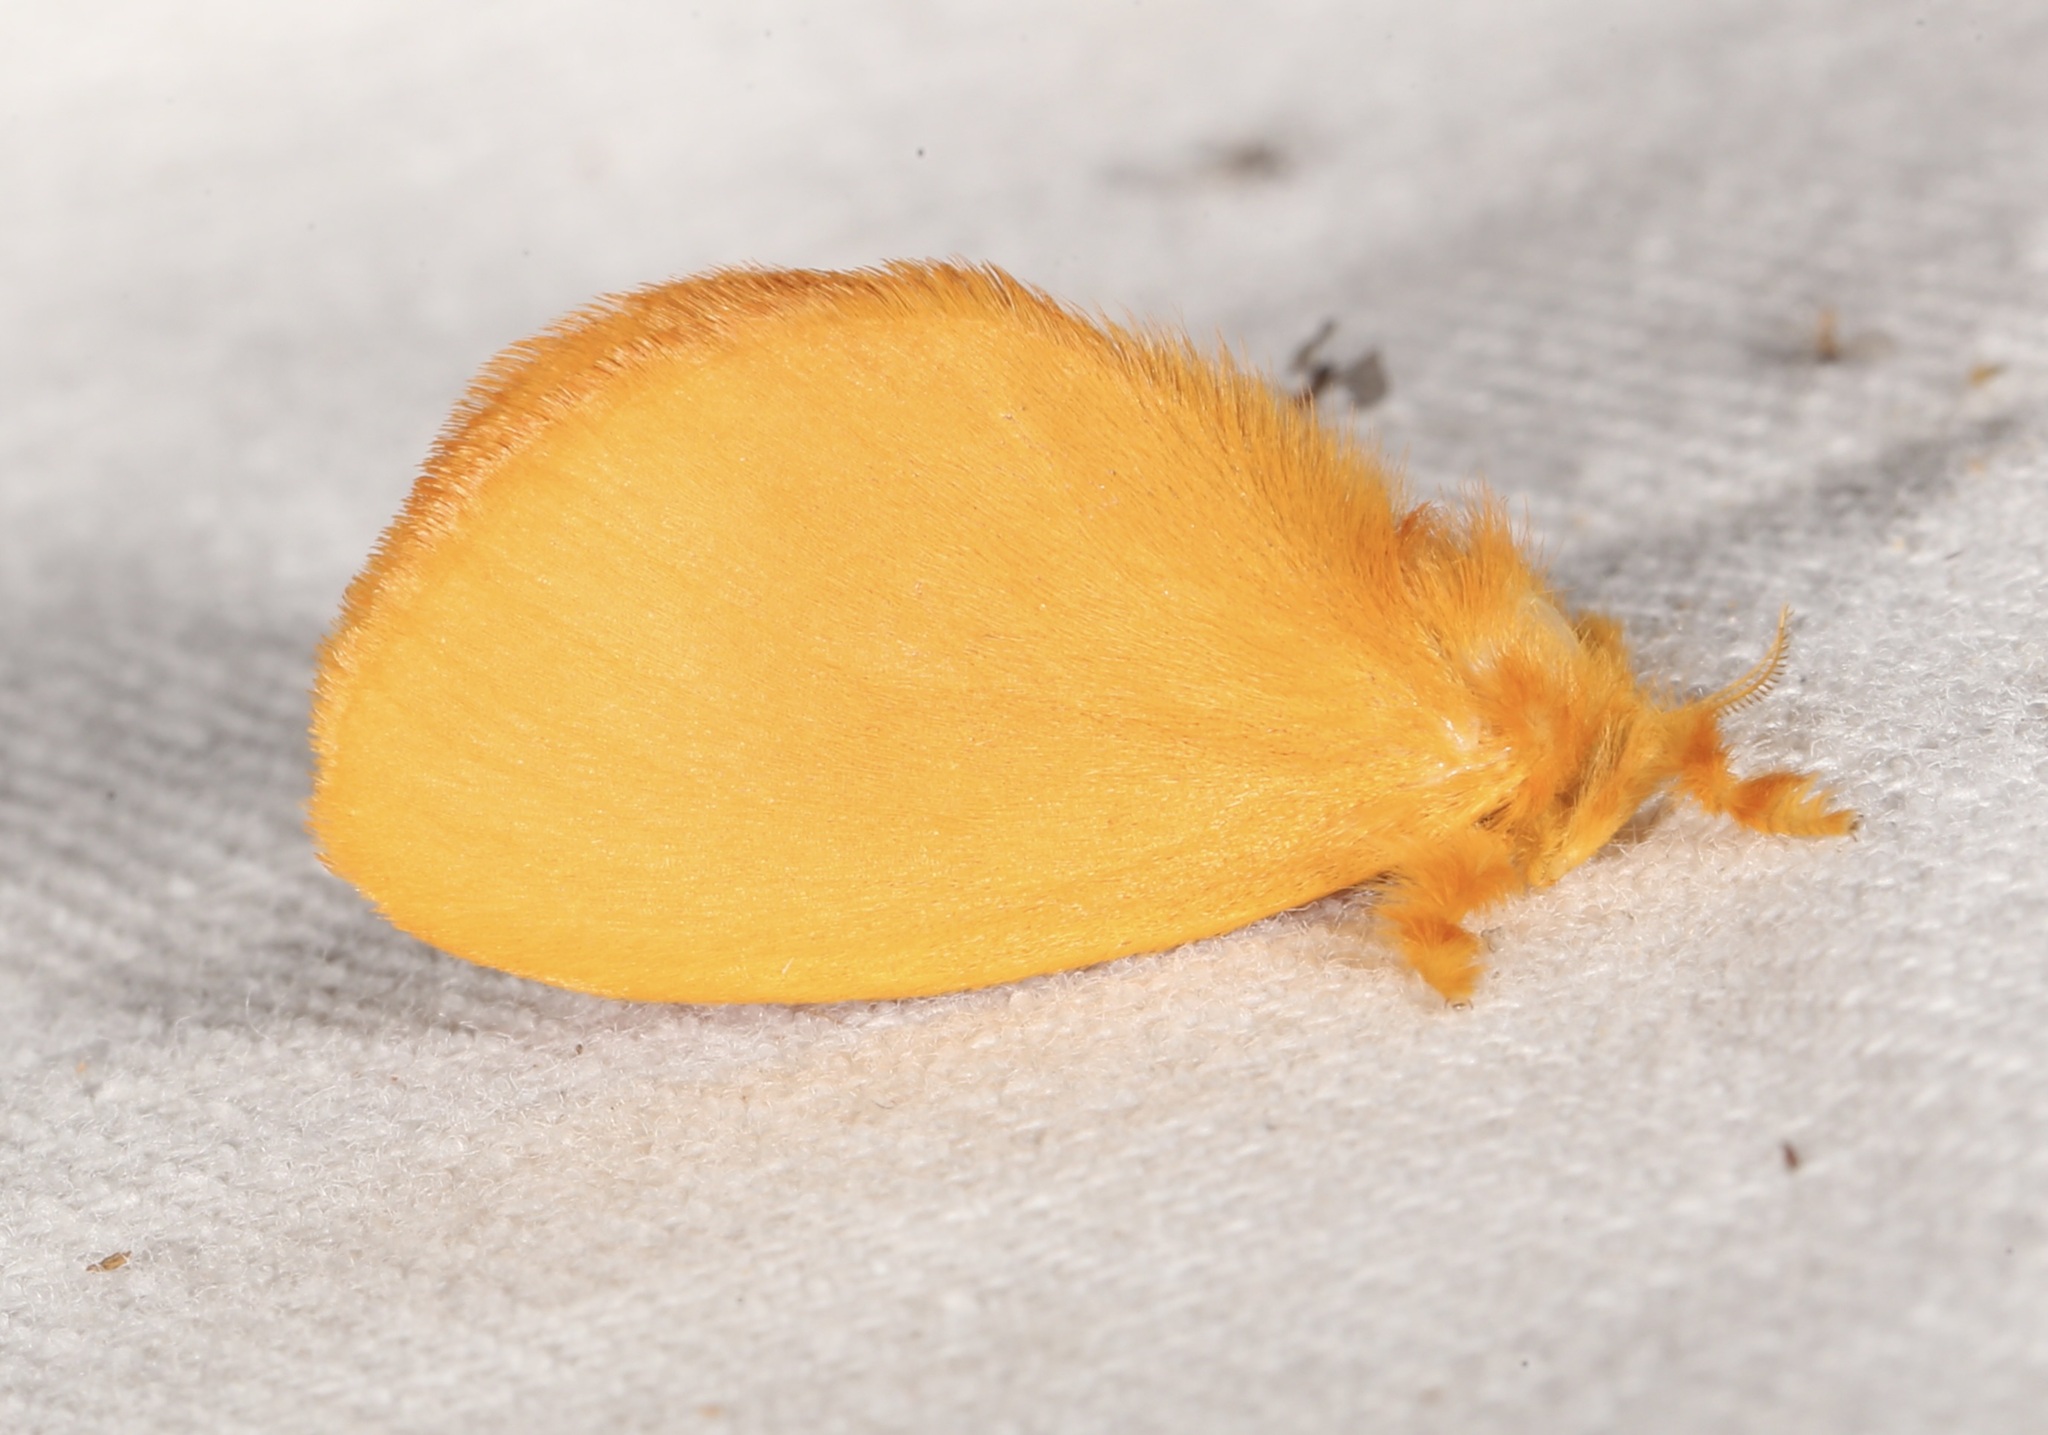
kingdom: Animalia
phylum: Arthropoda
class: Insecta
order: Lepidoptera
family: Dalceridae
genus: Dalcerides
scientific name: Dalcerides ingenita
